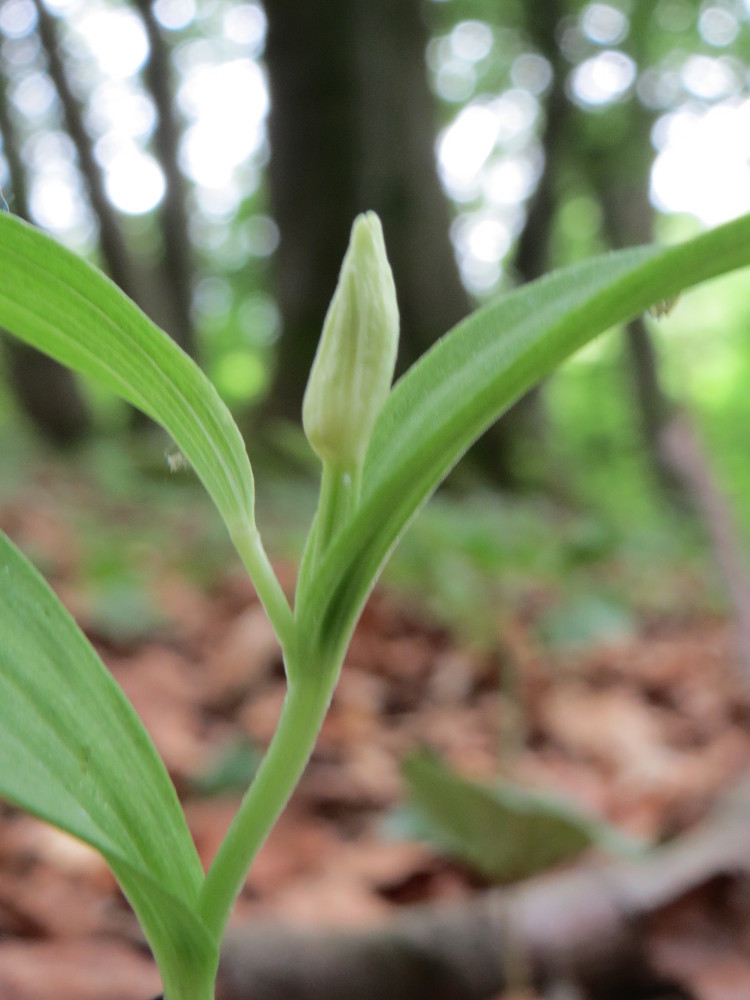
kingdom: Plantae
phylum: Tracheophyta
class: Liliopsida
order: Asparagales
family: Orchidaceae
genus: Cephalanthera
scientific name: Cephalanthera damasonium
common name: White helleborine
